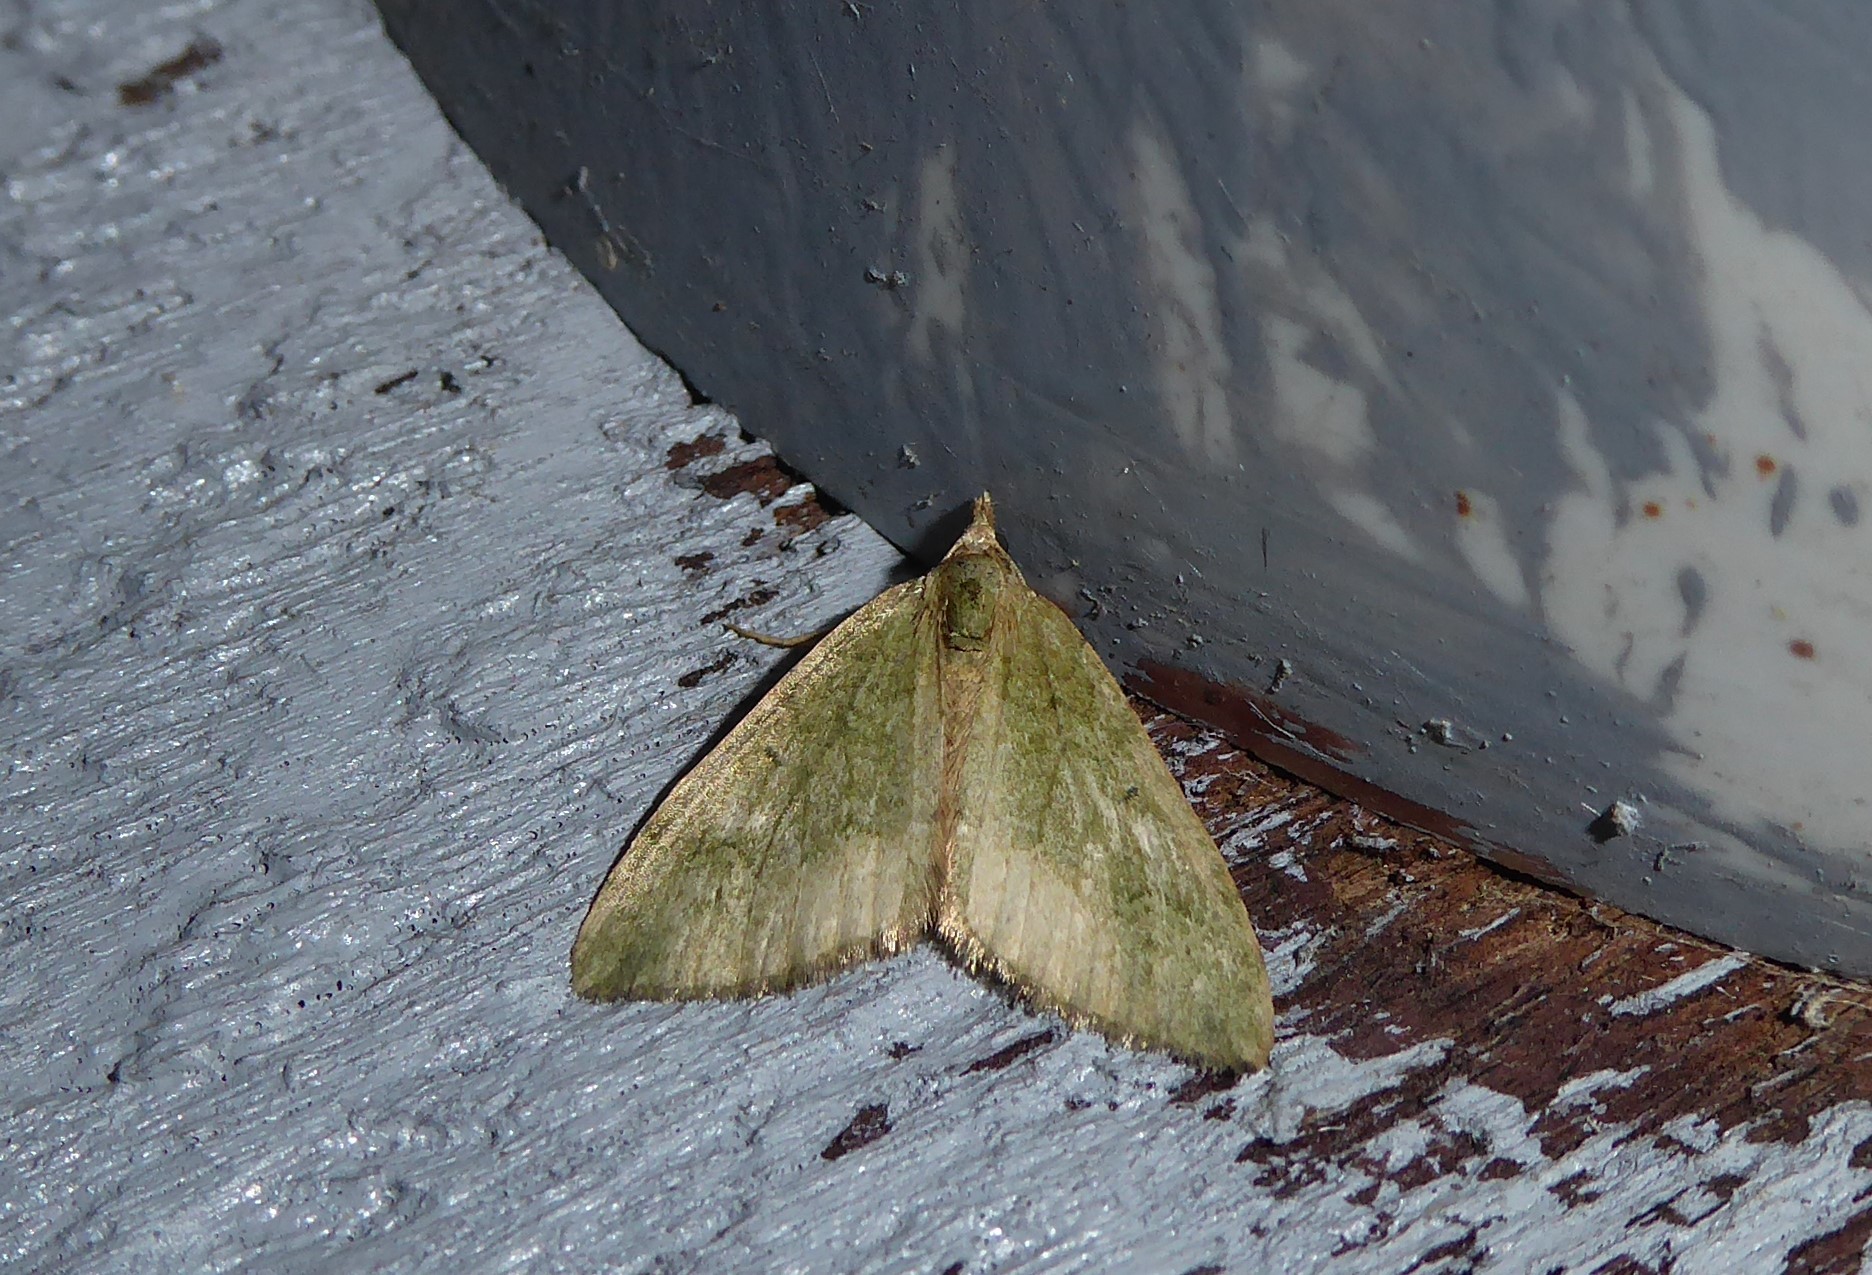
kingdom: Animalia
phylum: Arthropoda
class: Insecta
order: Lepidoptera
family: Geometridae
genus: Epyaxa
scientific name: Epyaxa rosearia
